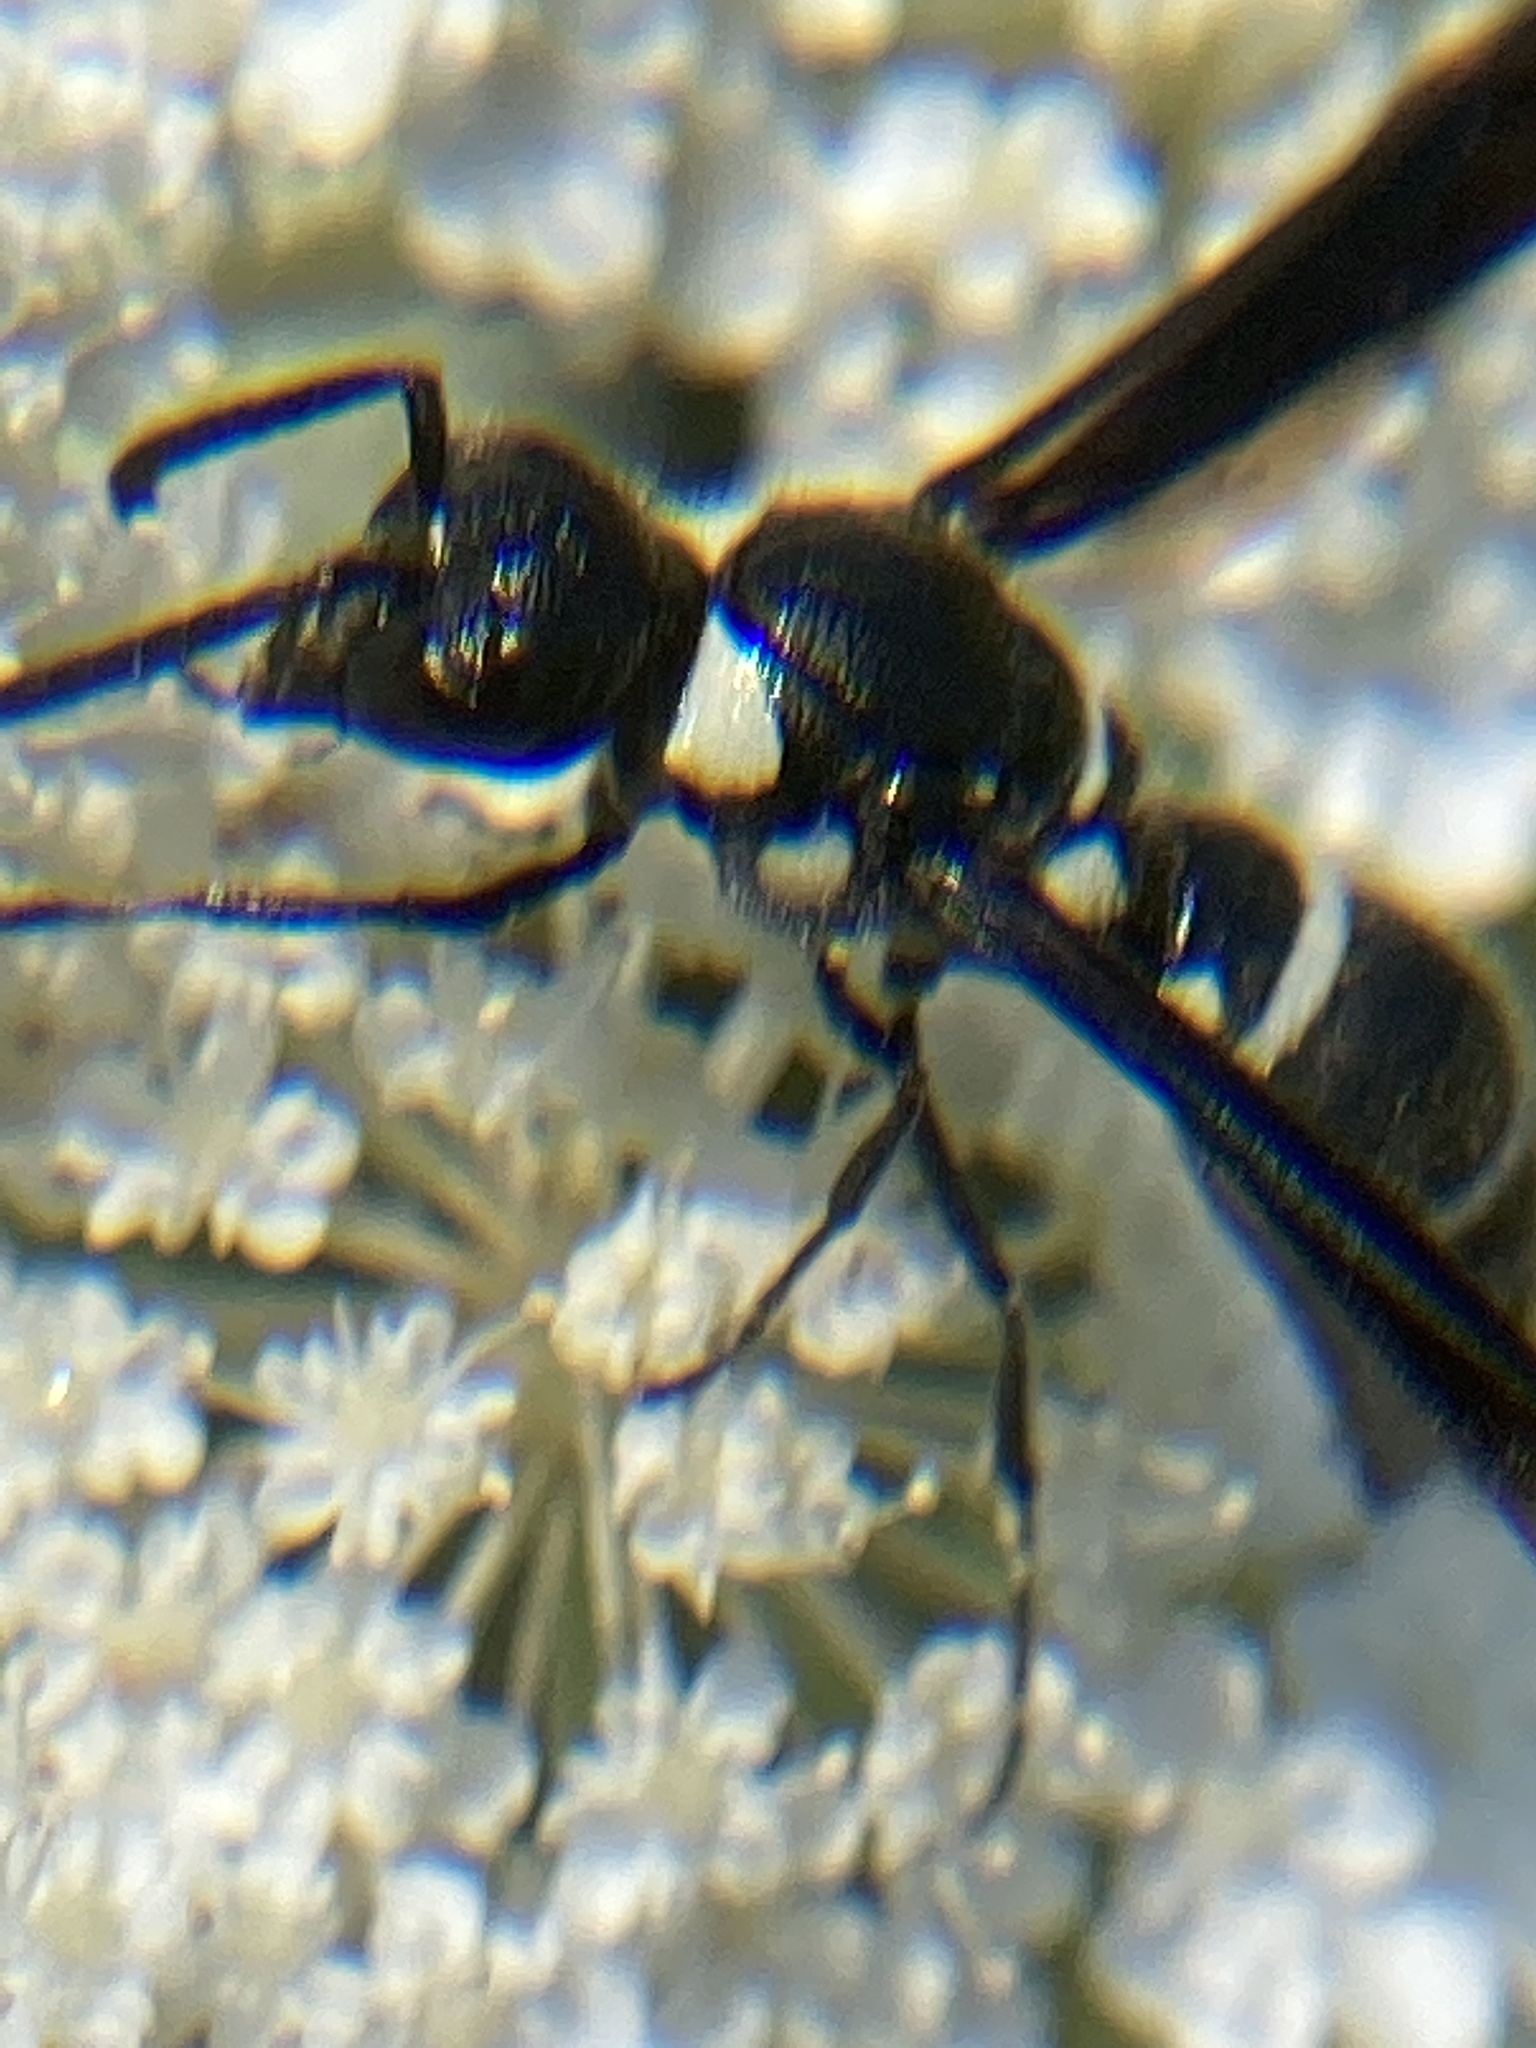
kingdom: Animalia
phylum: Arthropoda
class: Insecta
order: Hymenoptera
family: Eumenidae
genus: Pseudodynerus
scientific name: Pseudodynerus quadrisectus
